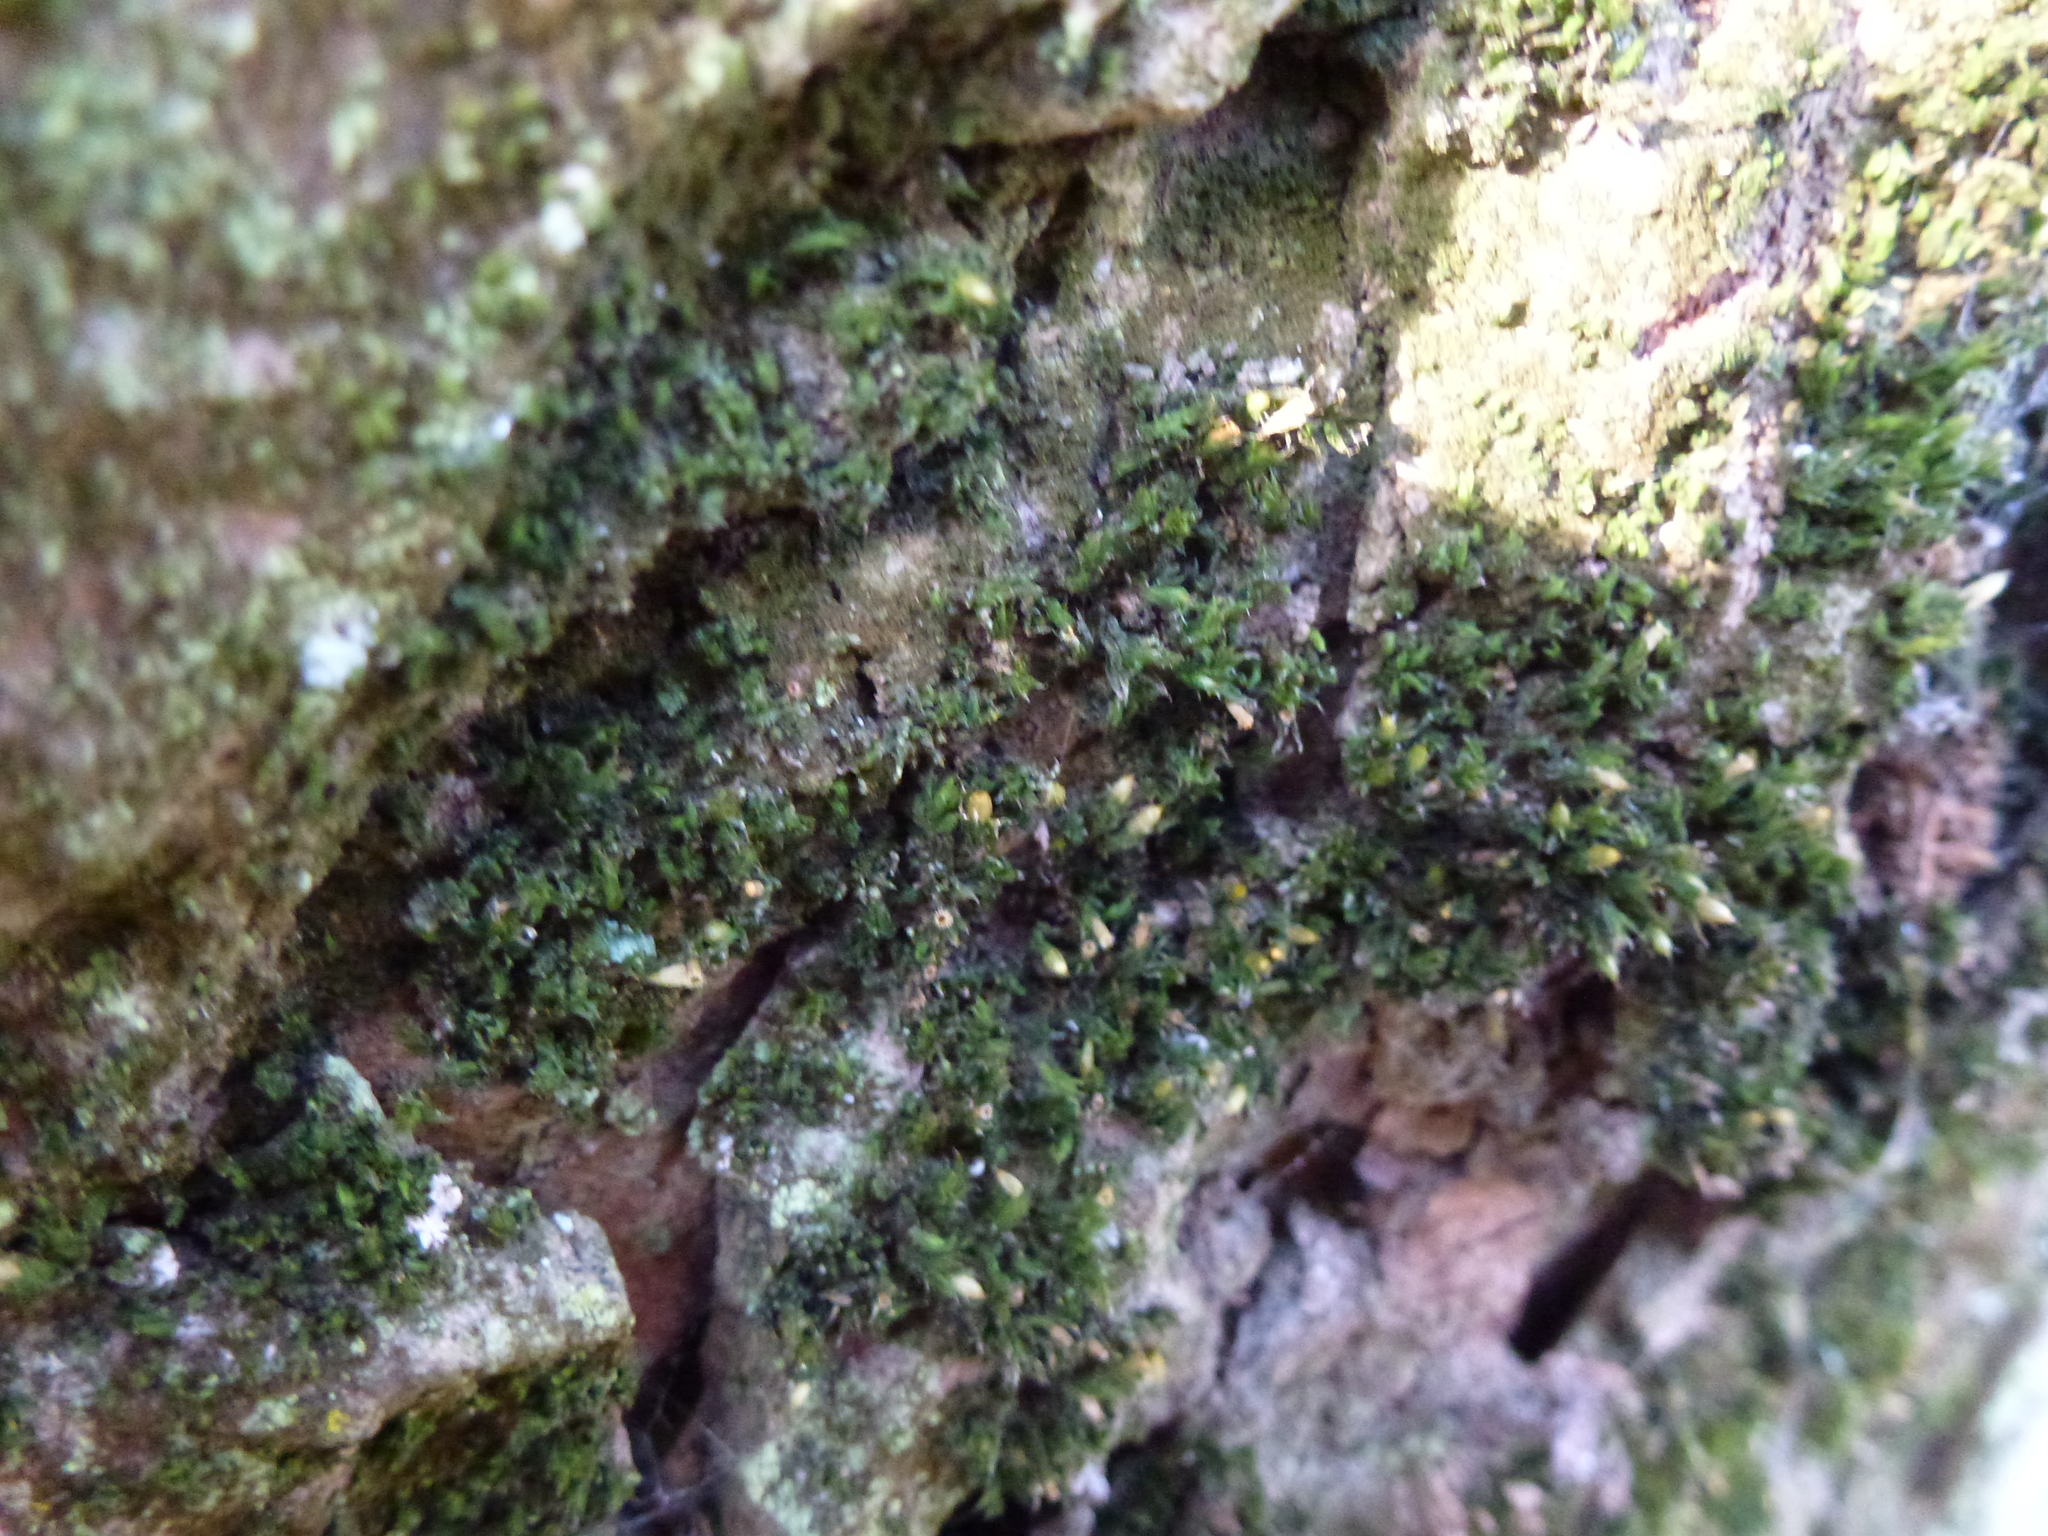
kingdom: Plantae
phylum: Bryophyta
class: Bryopsida
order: Orthotrichales
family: Orthotrichaceae
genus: Orthotrichum
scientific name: Orthotrichum diaphanum
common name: White-tipped bristle-moss
